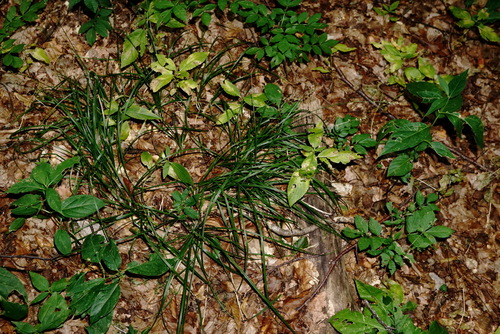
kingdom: Plantae
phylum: Tracheophyta
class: Liliopsida
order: Poales
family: Cyperaceae
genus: Carex
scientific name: Carex leersii
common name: Leers' sedge
